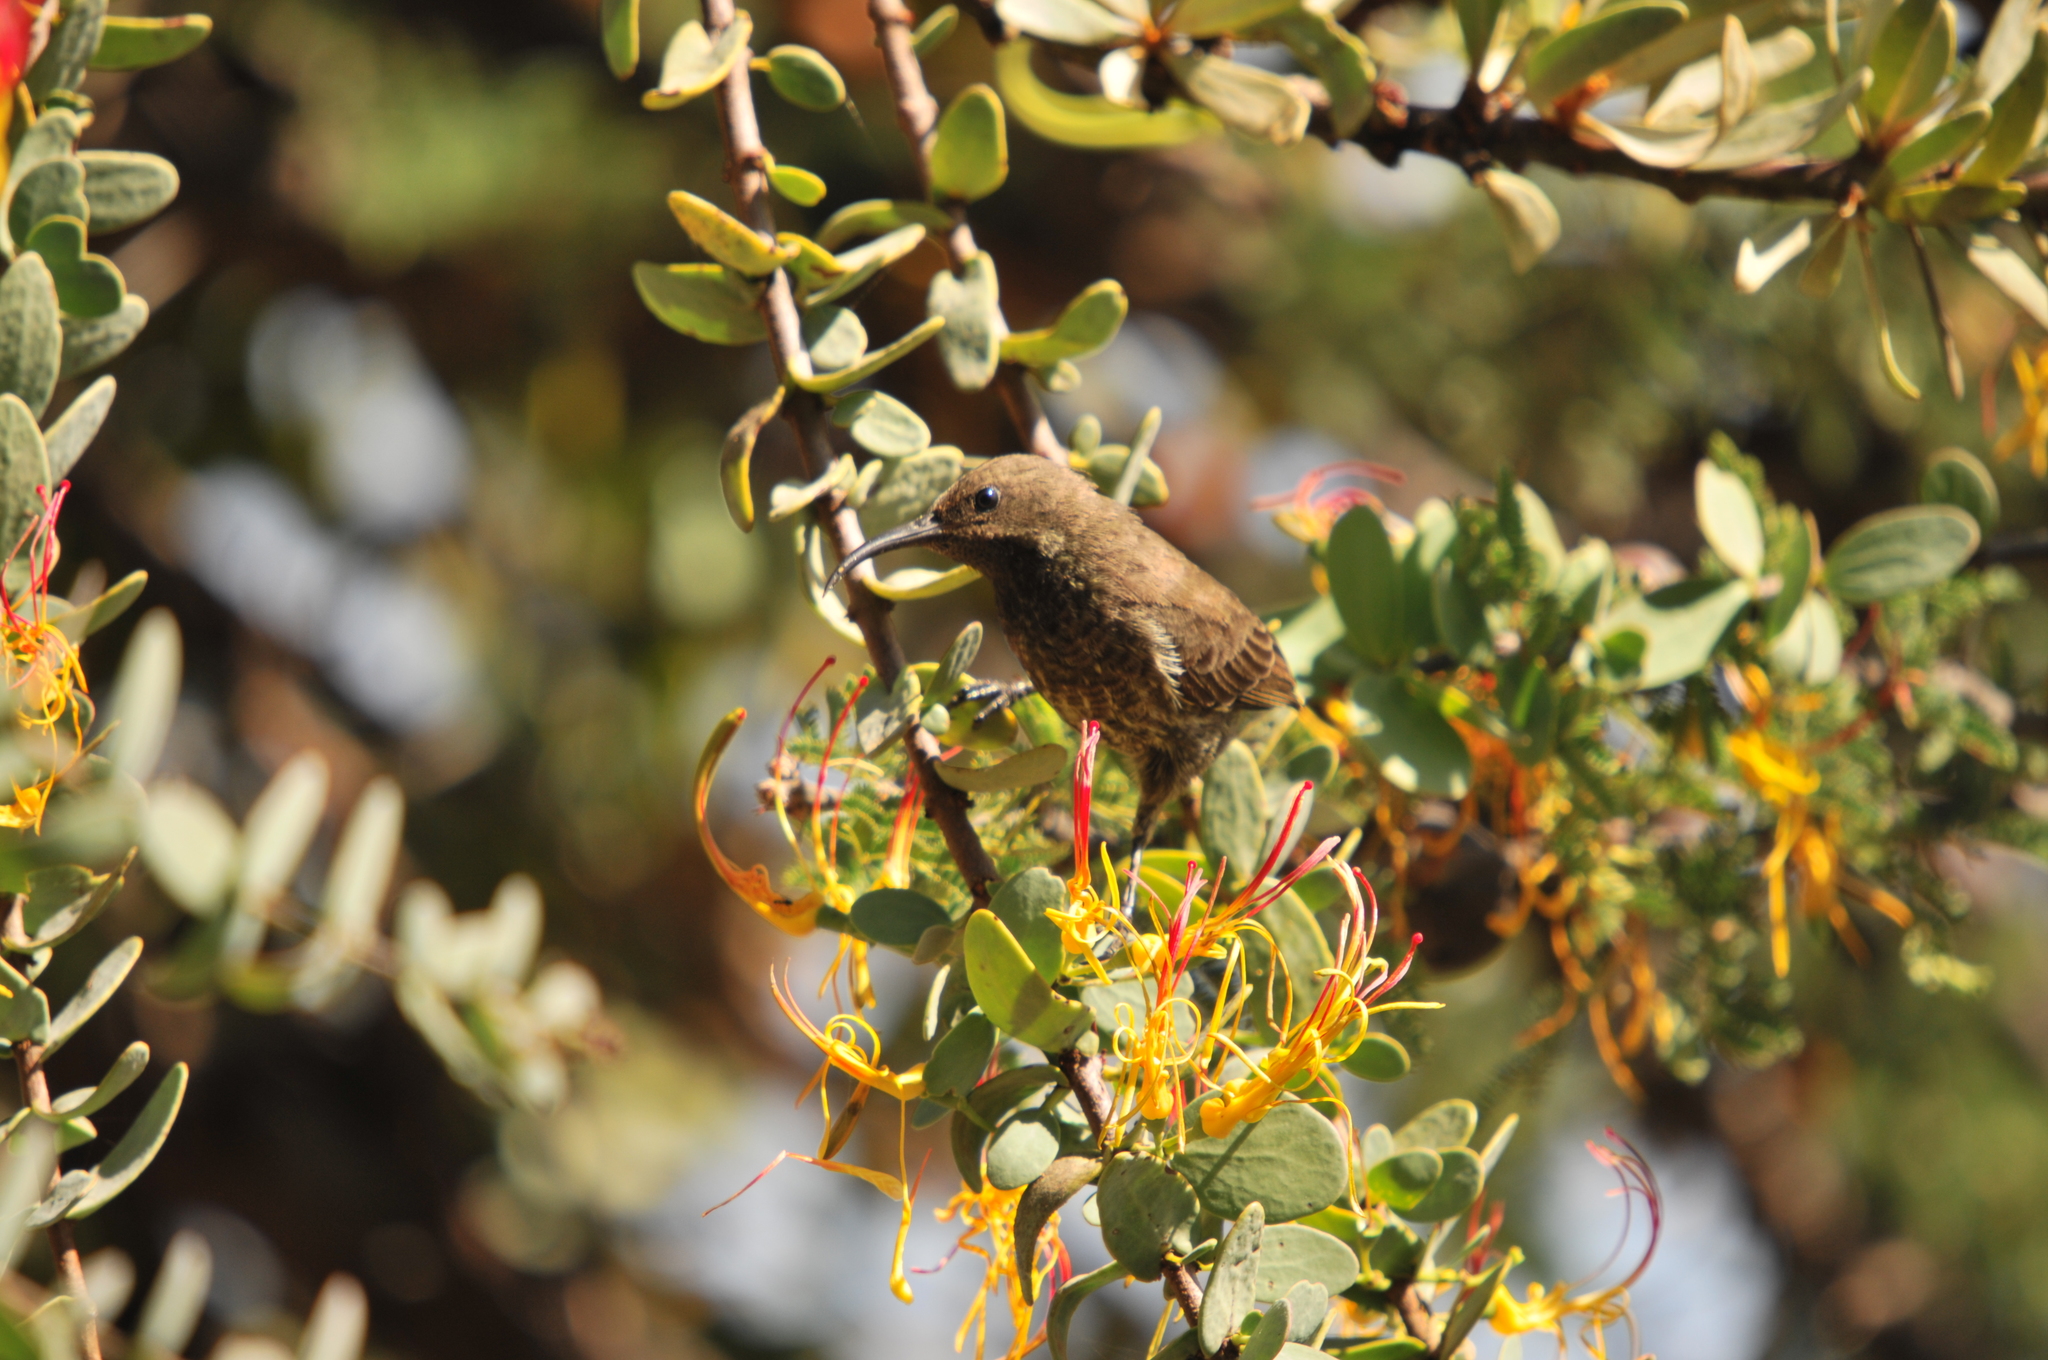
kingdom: Animalia
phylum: Chordata
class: Aves
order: Passeriformes
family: Nectariniidae
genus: Chalcomitra
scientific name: Chalcomitra hunteri
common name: Hunter's sunbird
